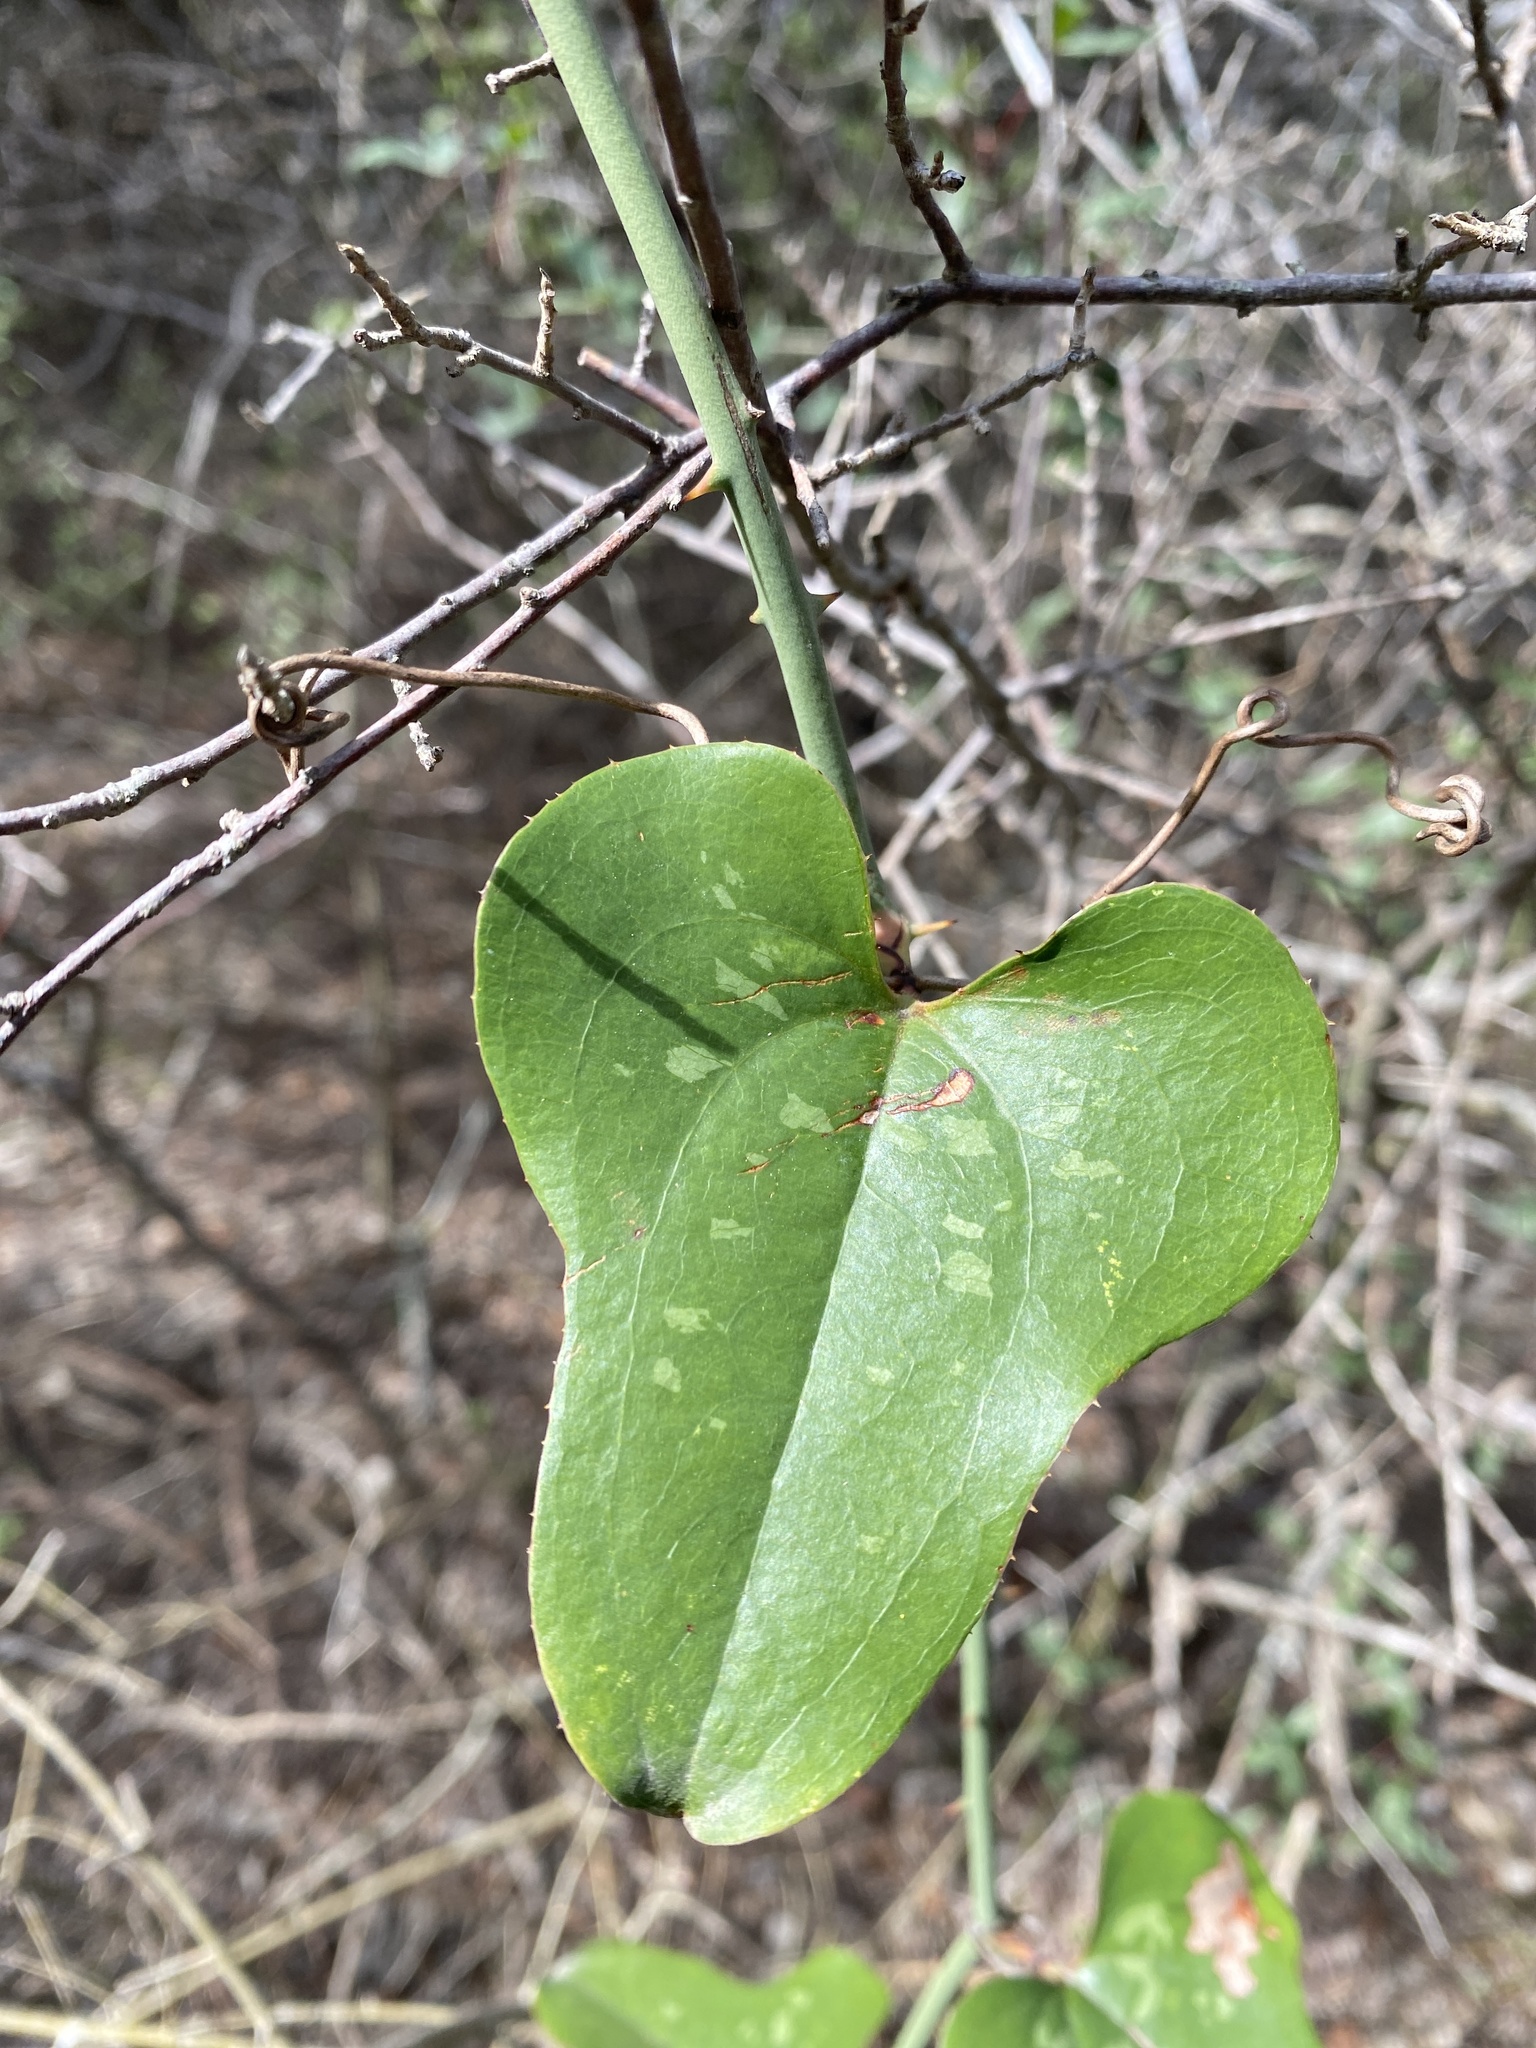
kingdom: Plantae
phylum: Tracheophyta
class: Liliopsida
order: Liliales
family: Smilacaceae
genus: Smilax
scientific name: Smilax bona-nox
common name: Catbrier
